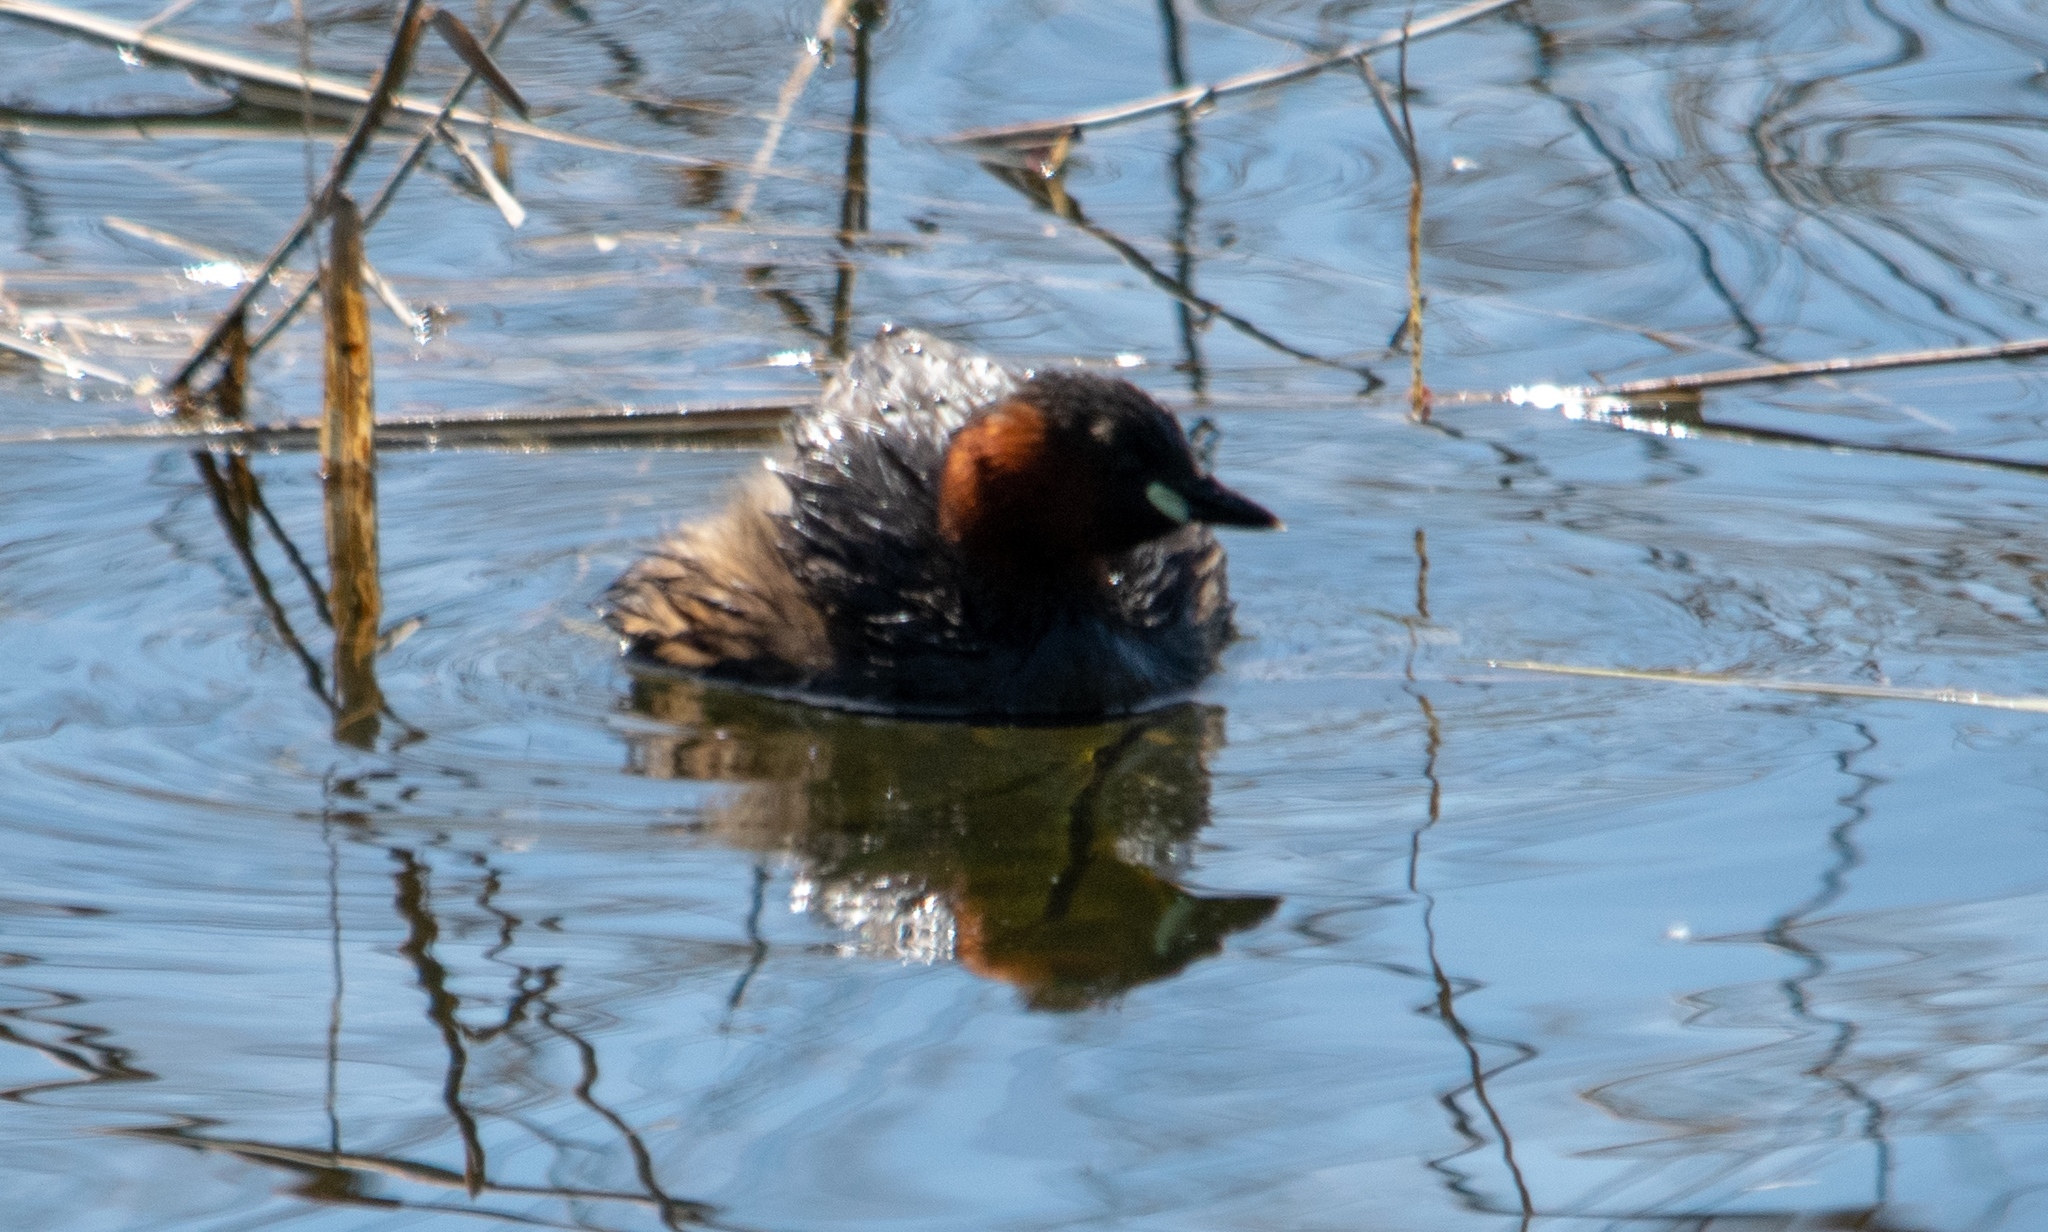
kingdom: Animalia
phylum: Chordata
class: Aves
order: Podicipediformes
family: Podicipedidae
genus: Tachybaptus
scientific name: Tachybaptus ruficollis
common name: Little grebe
